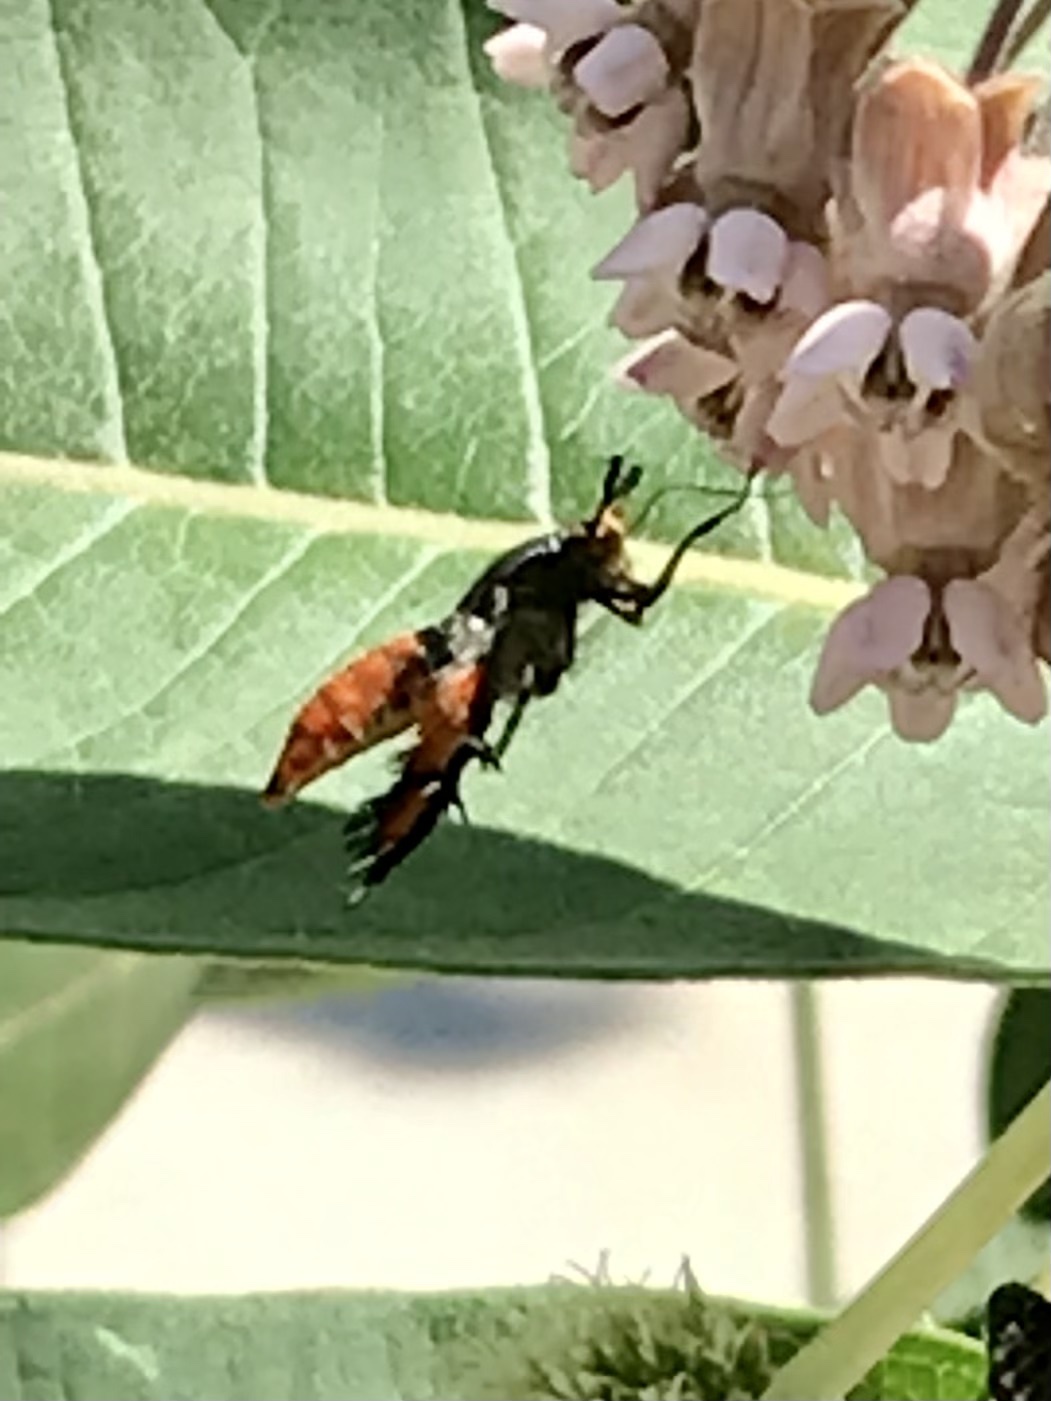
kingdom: Animalia
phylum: Arthropoda
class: Insecta
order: Lepidoptera
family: Sesiidae
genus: Eichlinia
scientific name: Eichlinia cucurbitae
